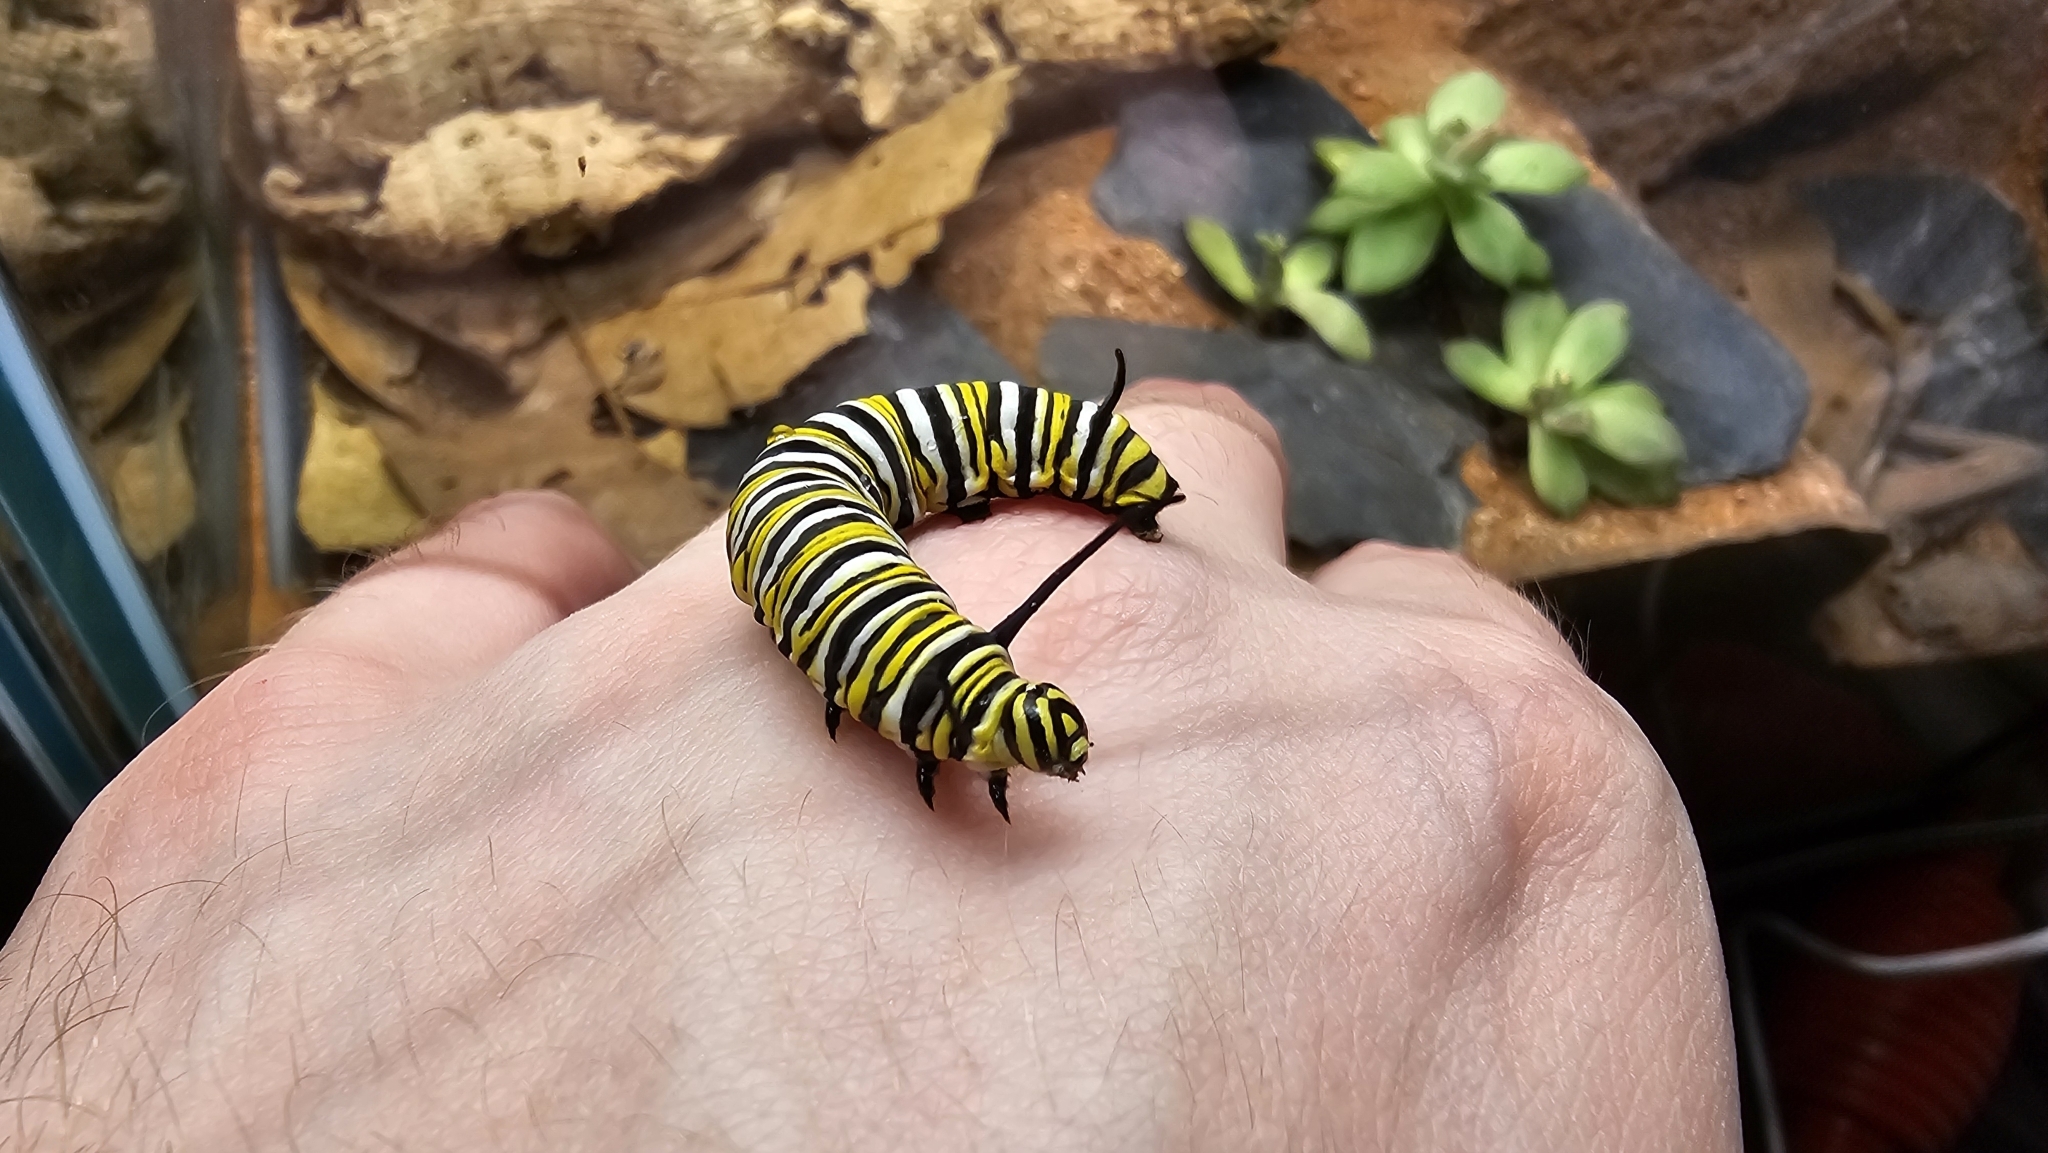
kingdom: Animalia
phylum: Arthropoda
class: Insecta
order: Lepidoptera
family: Nymphalidae
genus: Danaus
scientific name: Danaus plexippus
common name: Monarch
